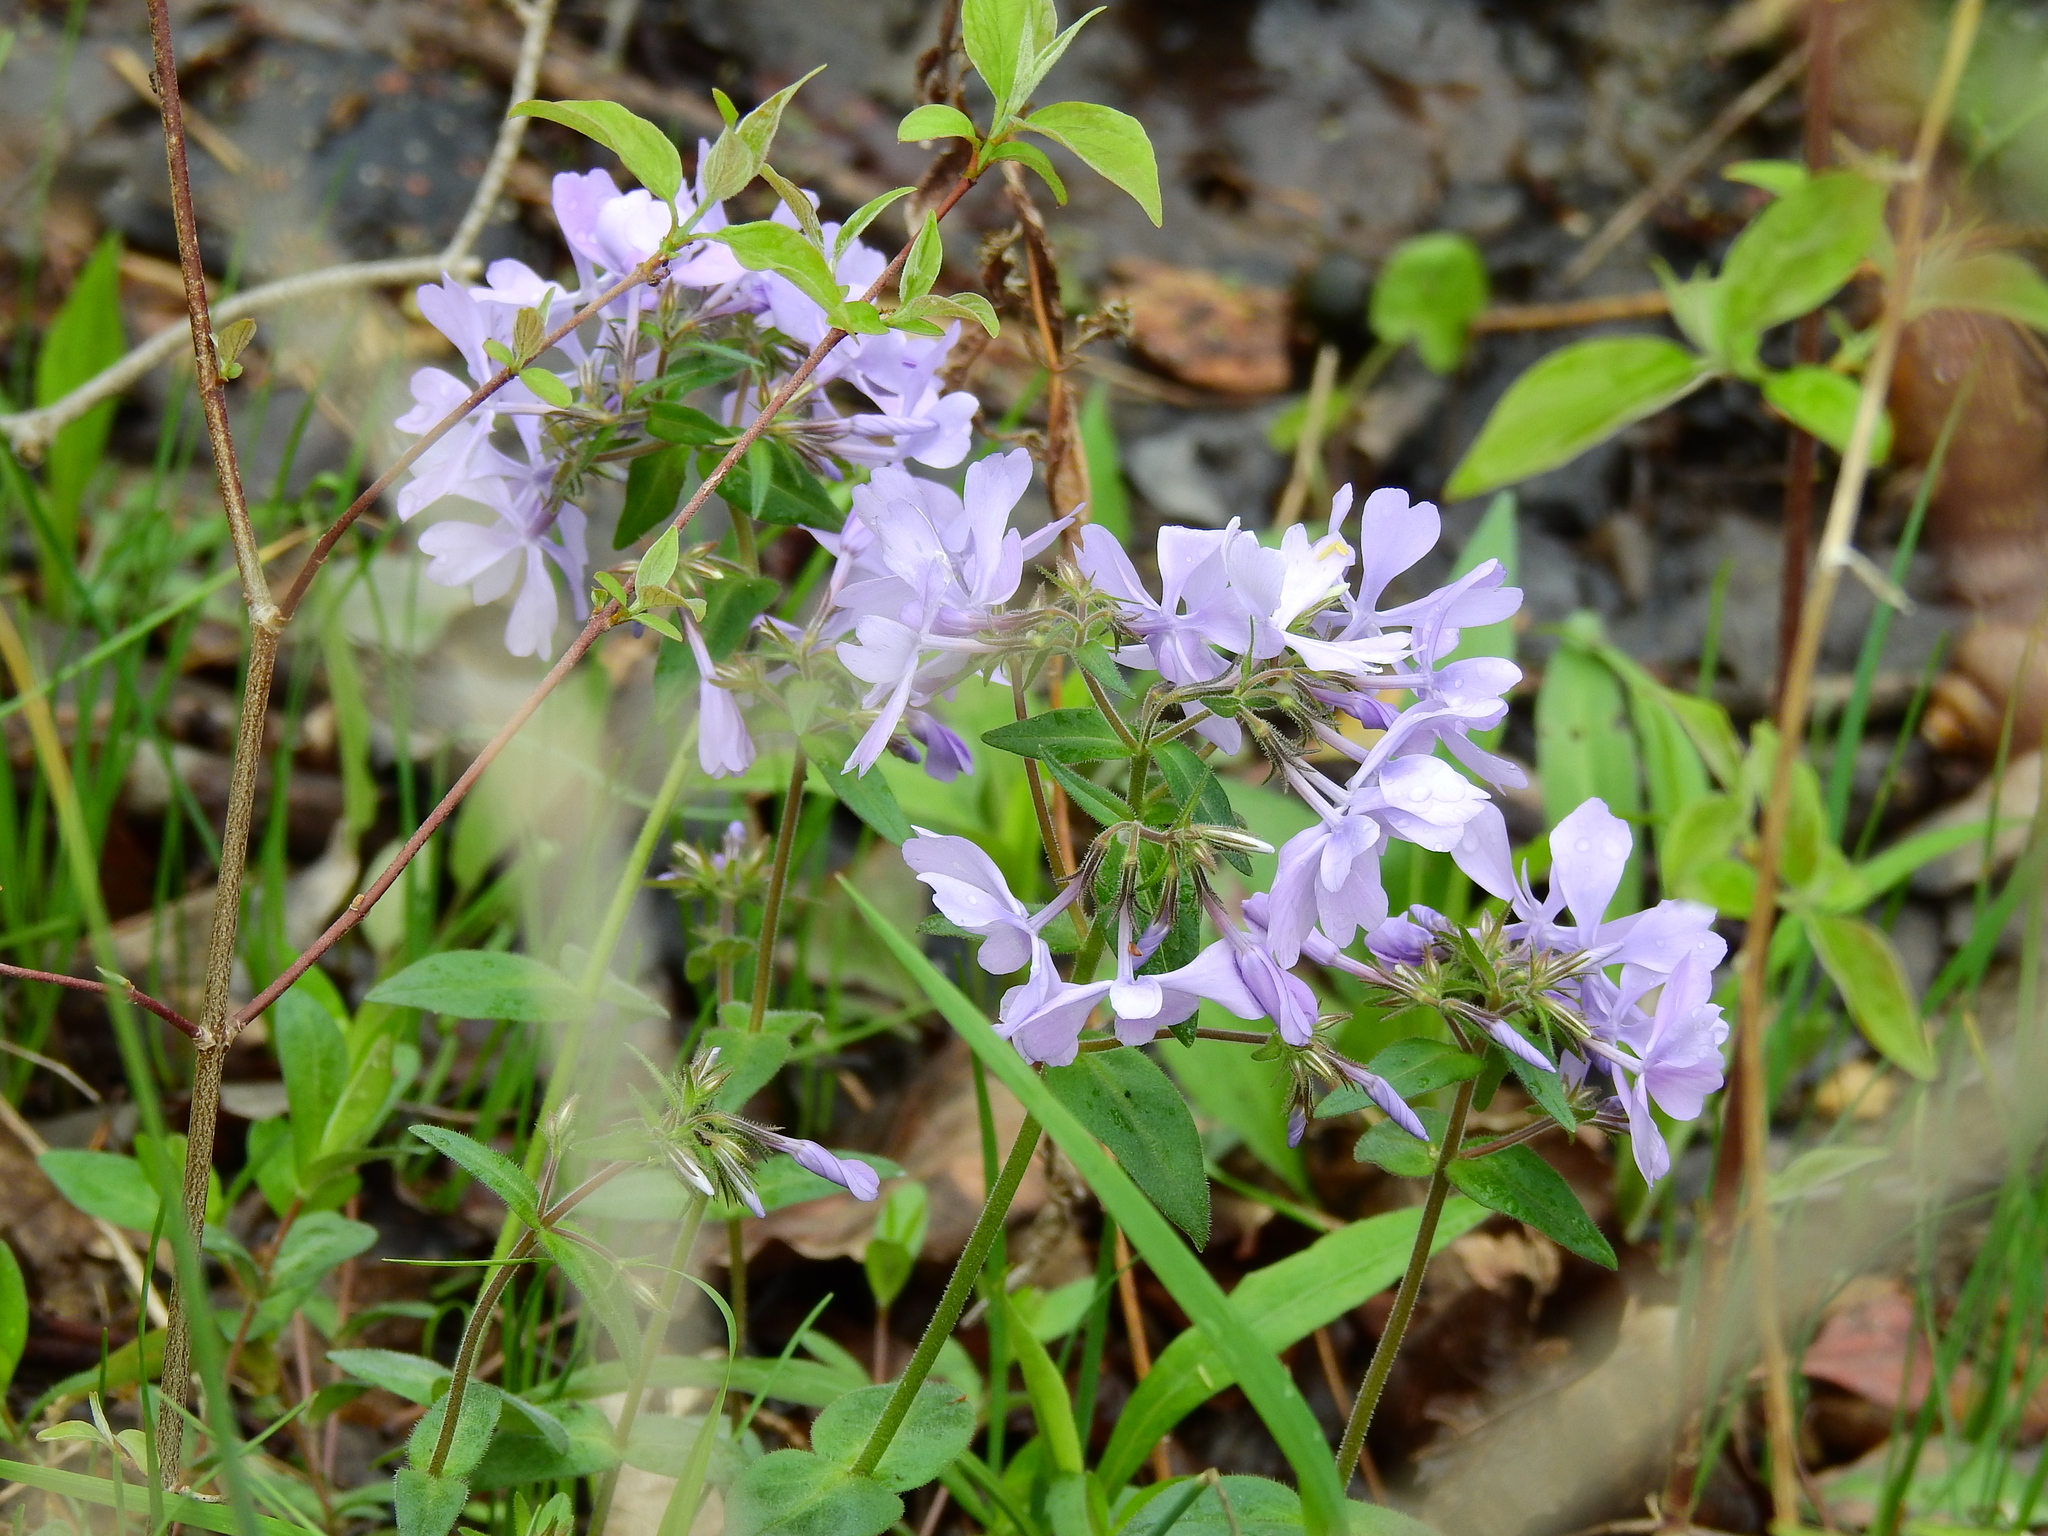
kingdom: Plantae
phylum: Tracheophyta
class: Magnoliopsida
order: Ericales
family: Polemoniaceae
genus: Phlox
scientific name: Phlox divaricata
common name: Blue phlox
